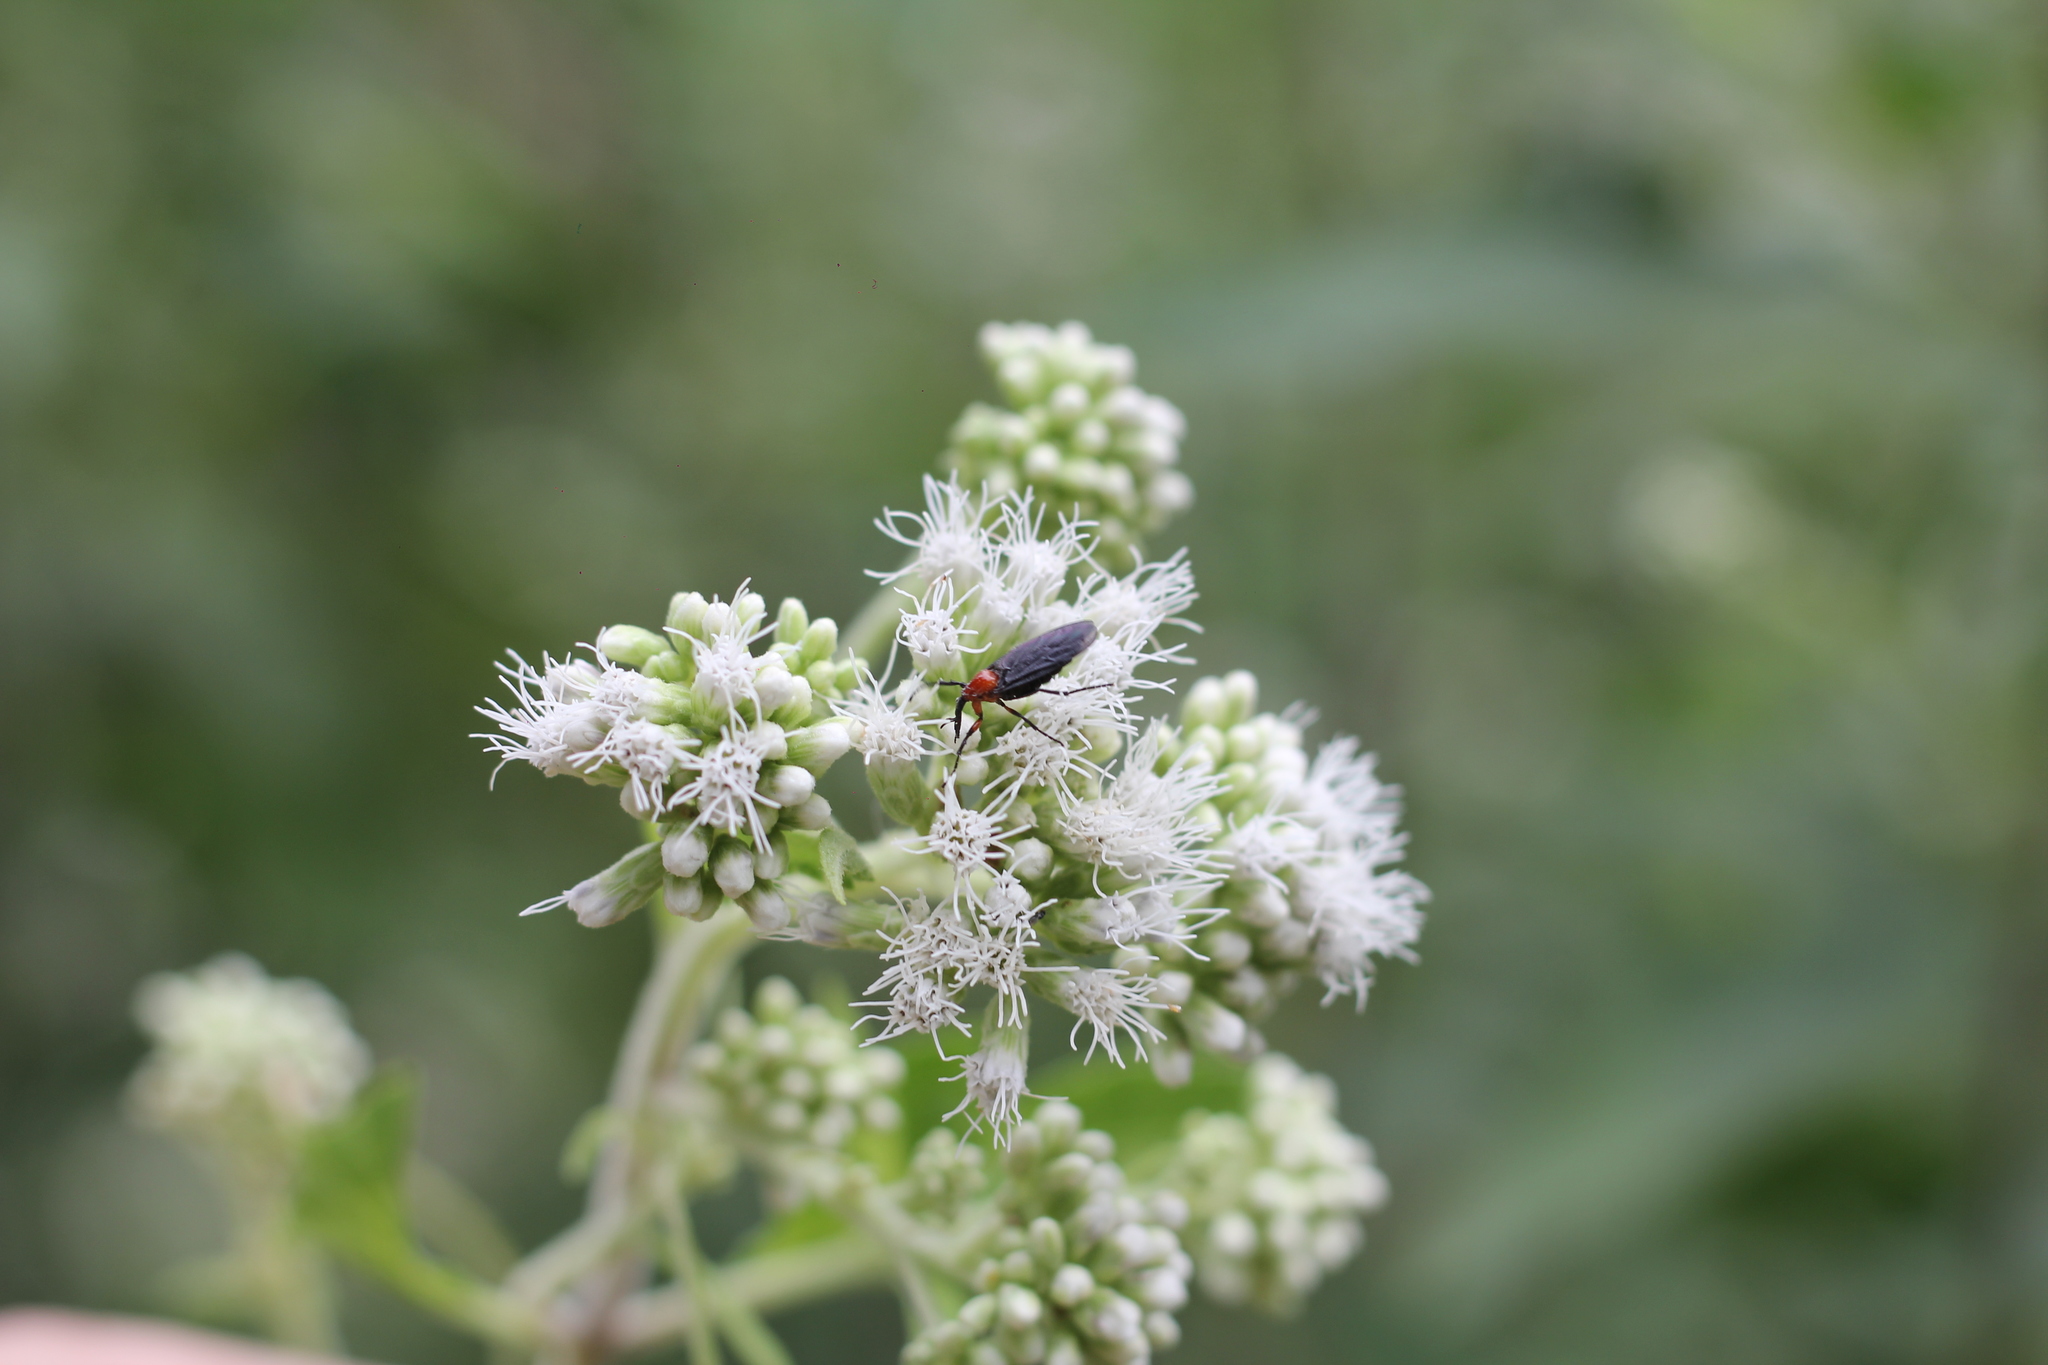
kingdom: Animalia
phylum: Arthropoda
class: Insecta
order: Diptera
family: Bibionidae
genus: Dilophus
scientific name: Dilophus pectoralis
